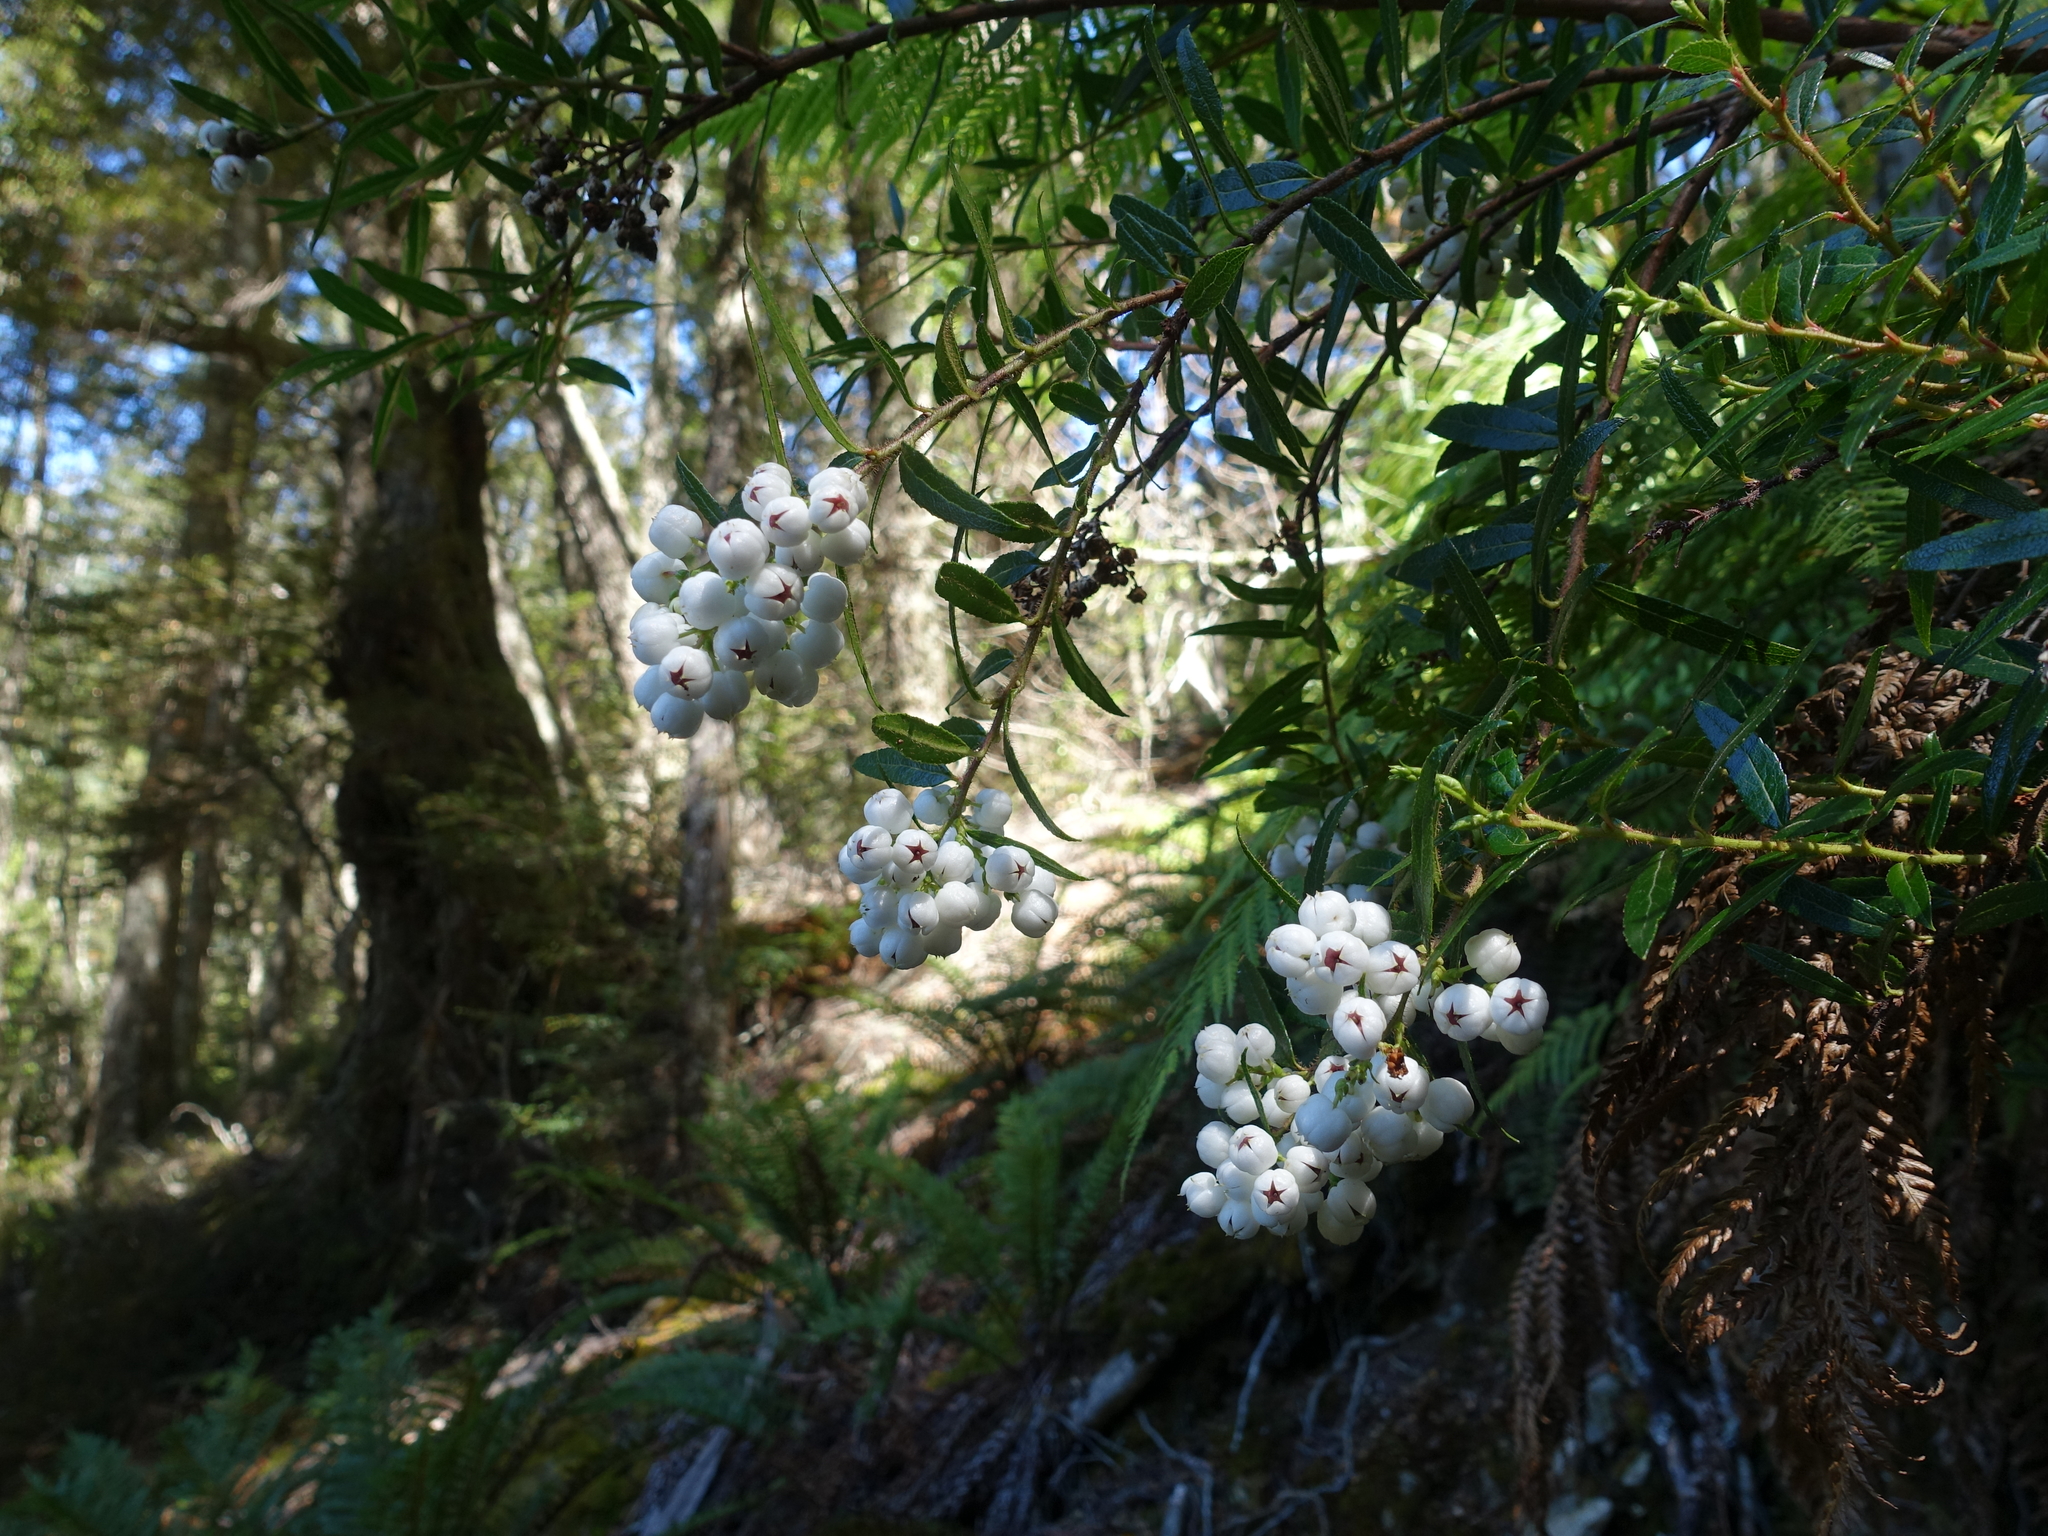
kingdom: Plantae
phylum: Tracheophyta
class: Magnoliopsida
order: Ericales
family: Ericaceae
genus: Gaultheria
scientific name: Gaultheria hispida
